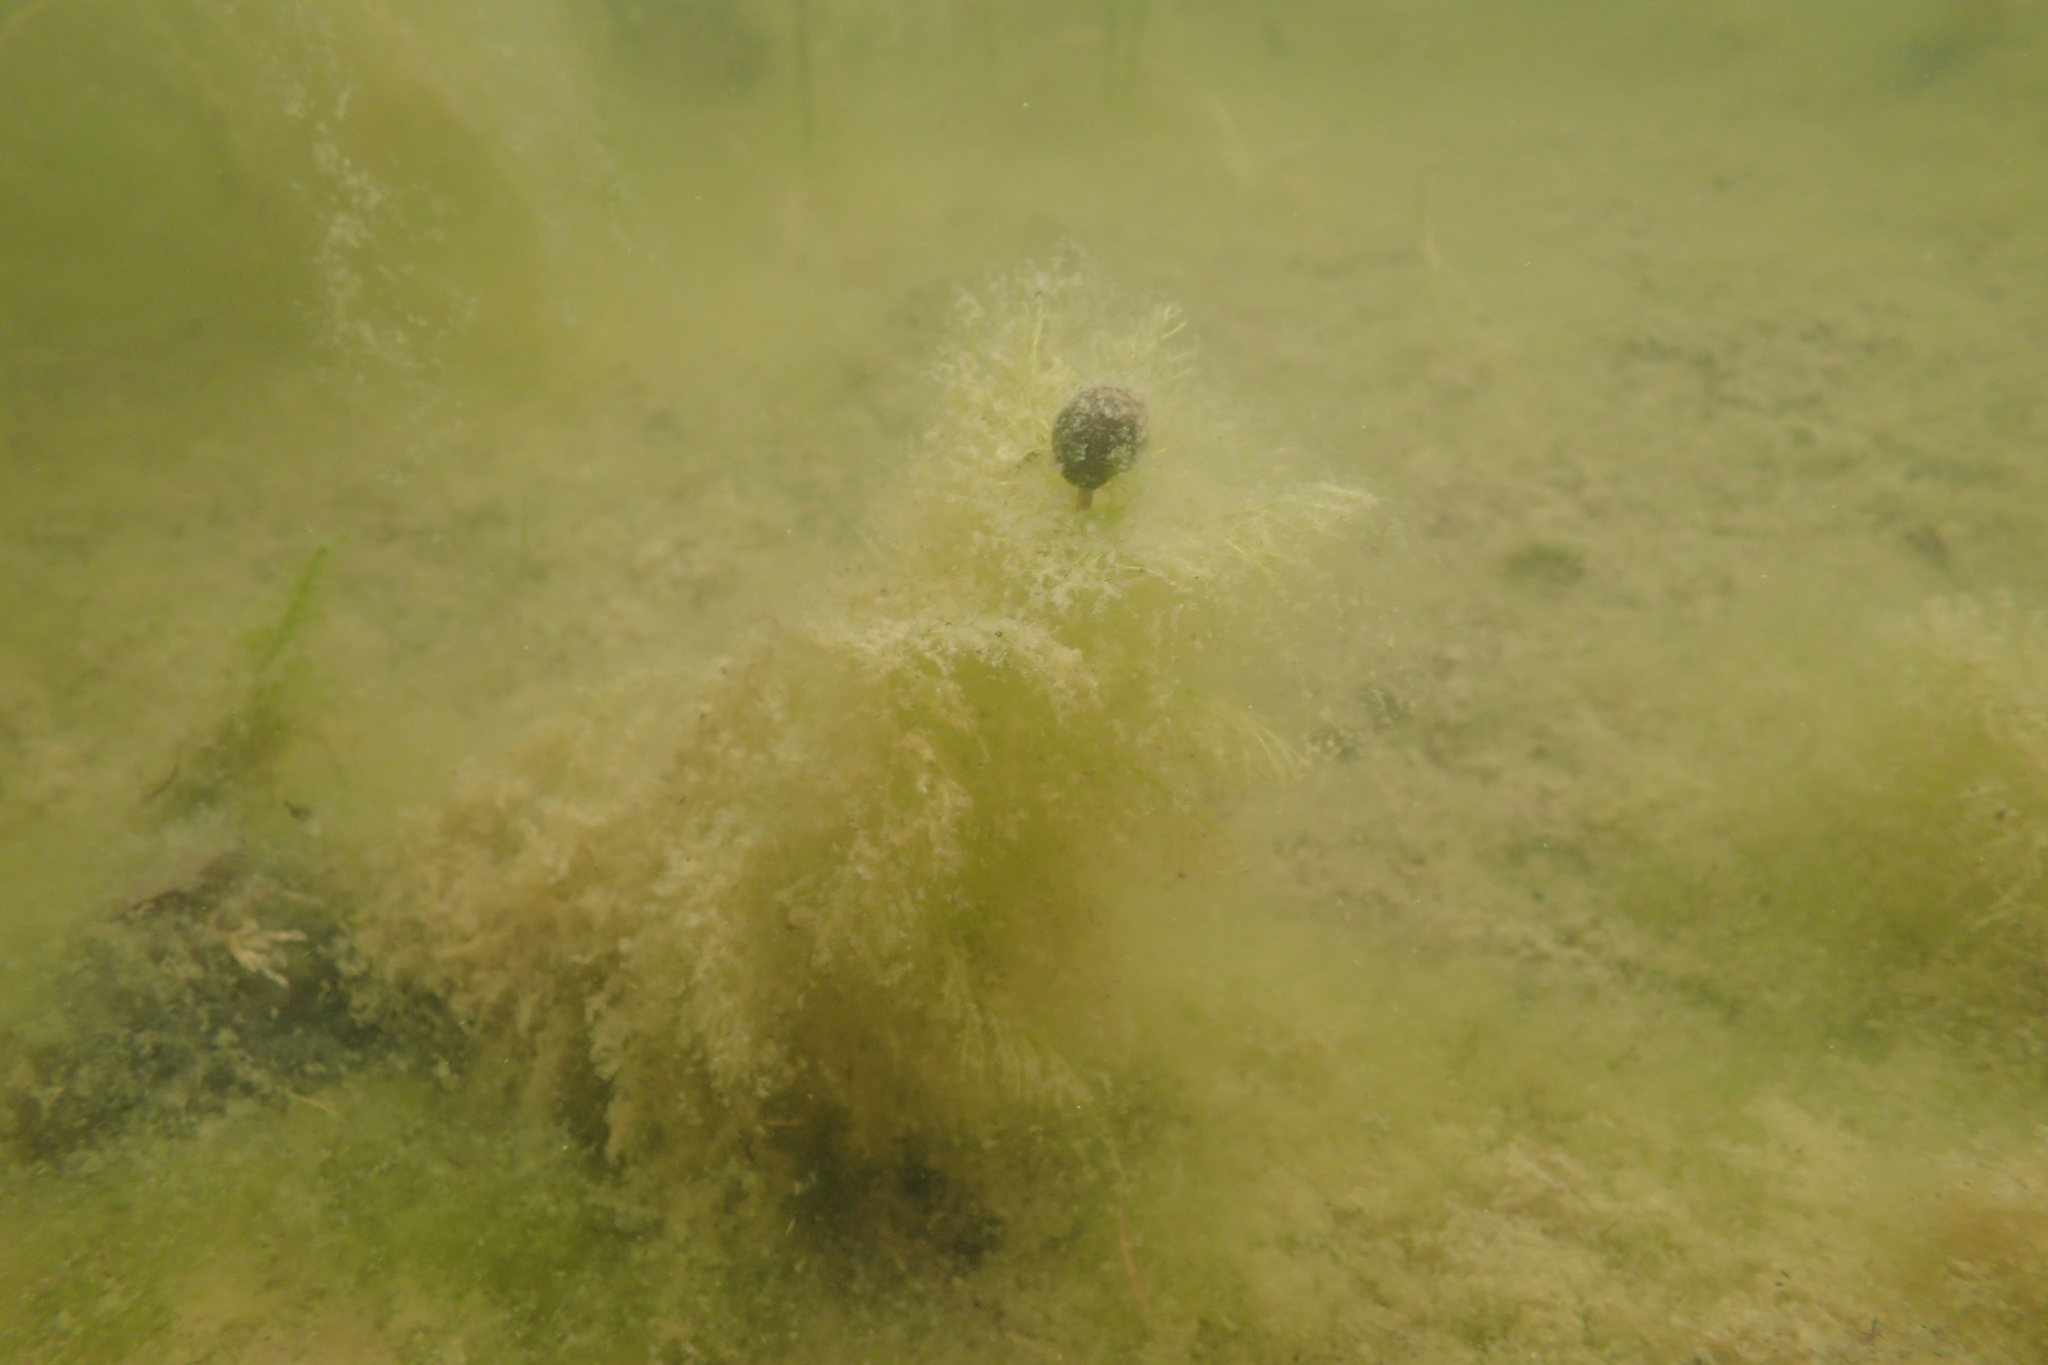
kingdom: Plantae
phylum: Tracheophyta
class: Magnoliopsida
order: Lamiales
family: Lentibulariaceae
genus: Utricularia
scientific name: Utricularia macrorhiza
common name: Common bladderwort
